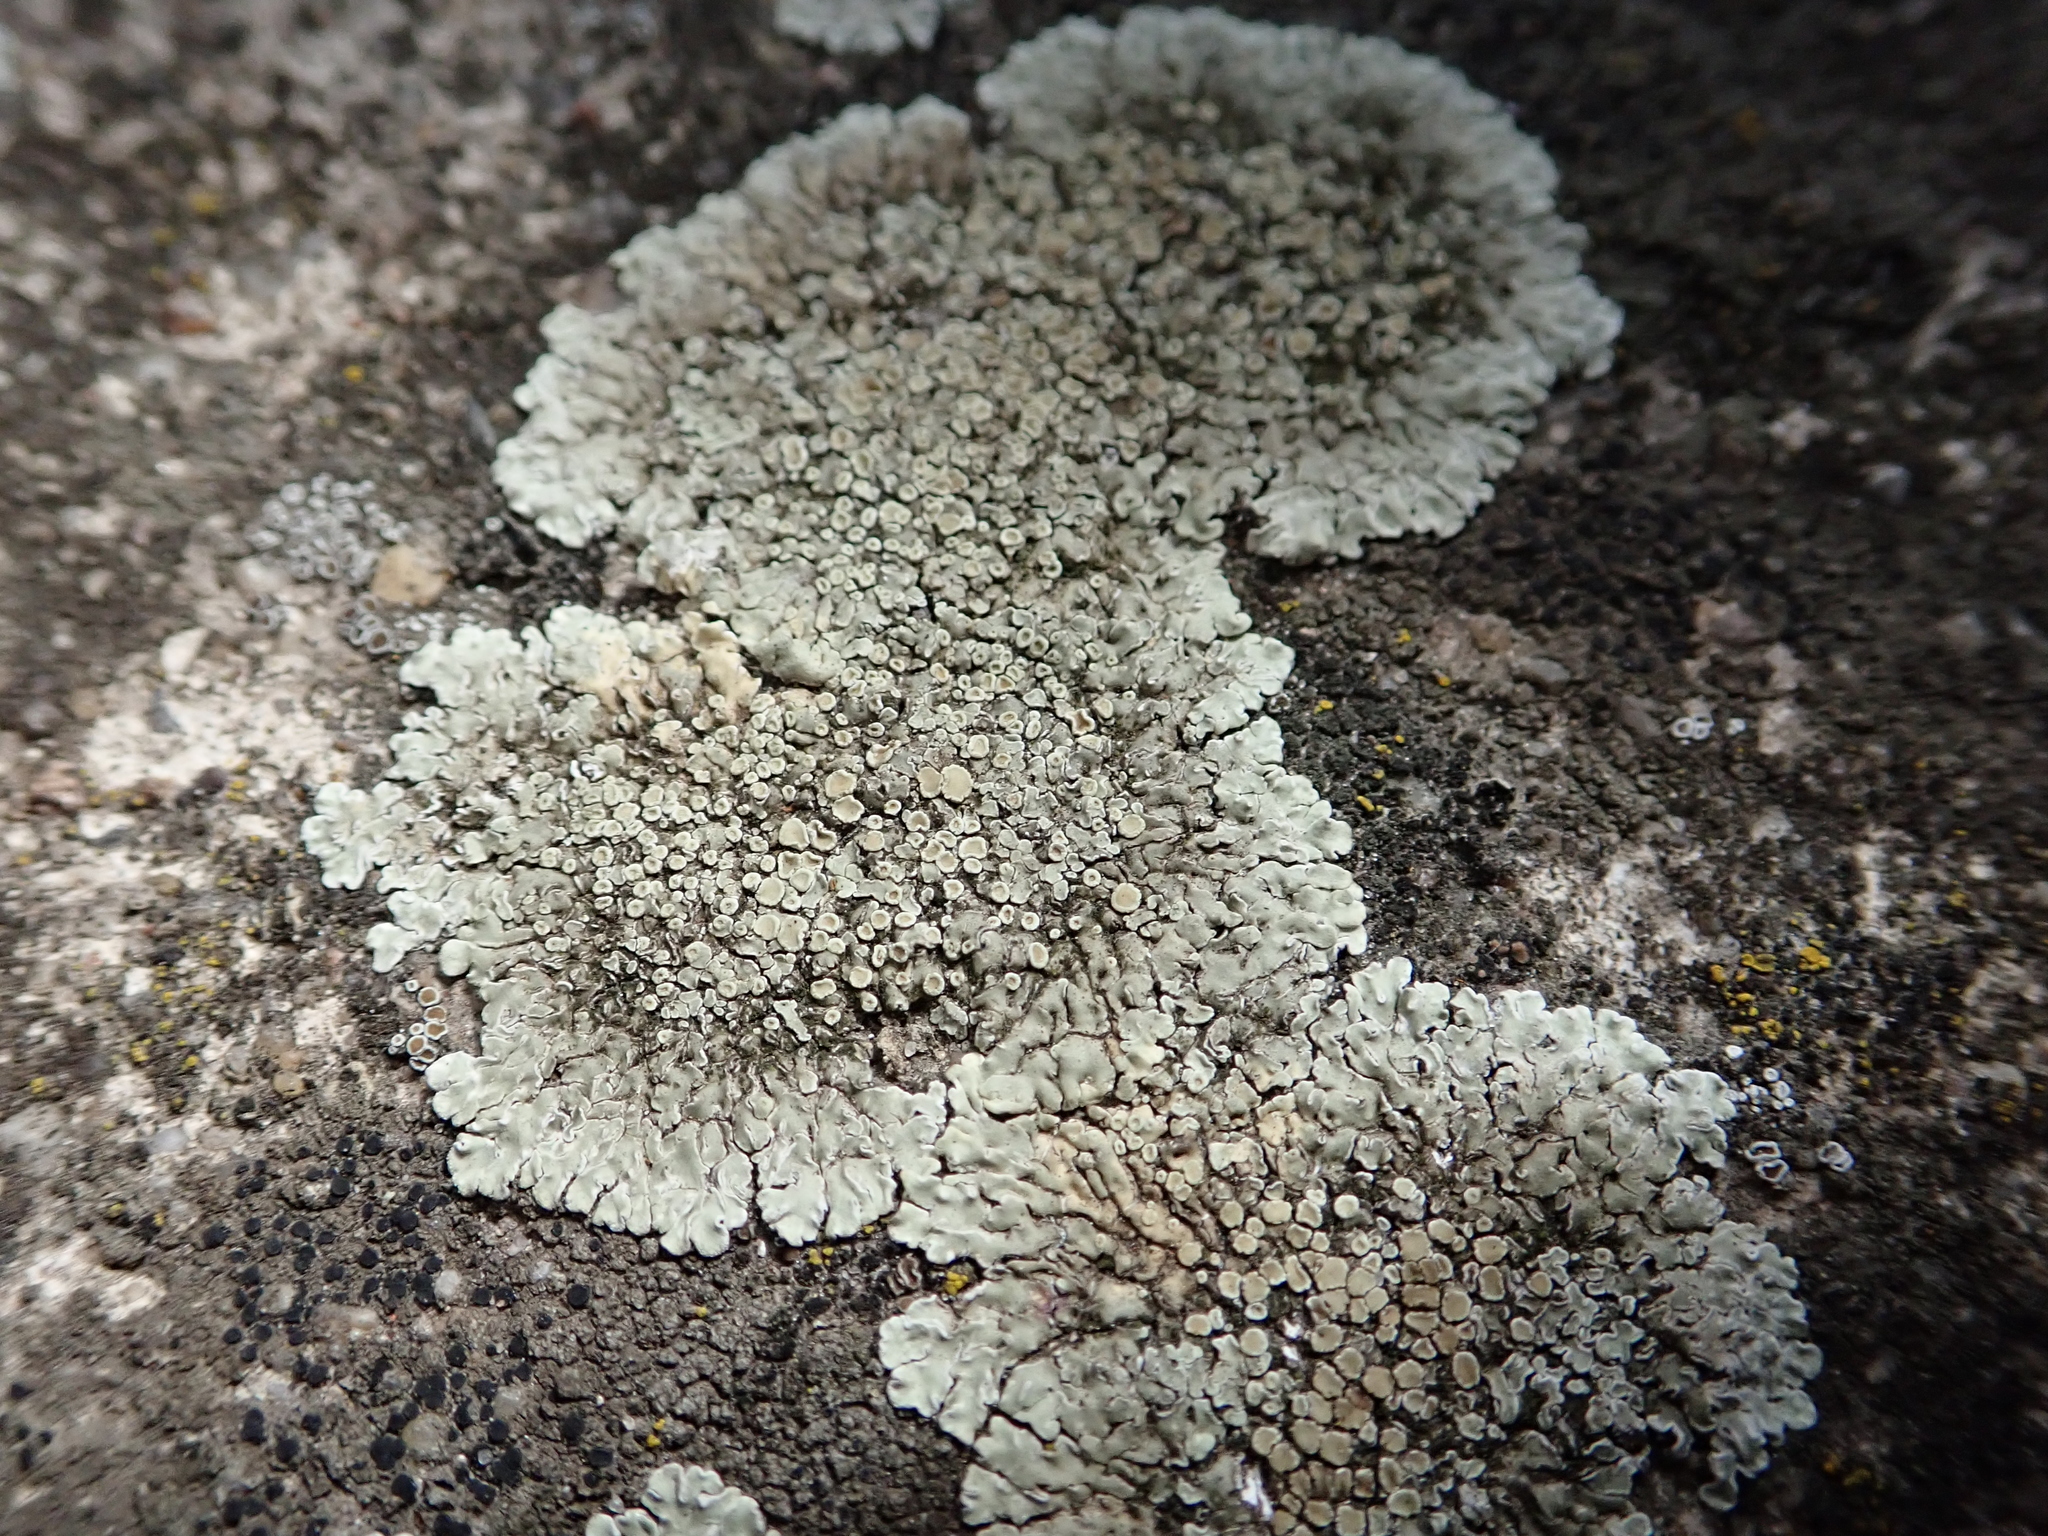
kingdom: Fungi
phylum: Ascomycota
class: Lecanoromycetes
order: Lecanorales
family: Lecanoraceae
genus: Protoparmeliopsis
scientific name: Protoparmeliopsis muralis
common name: Stonewall rim lichen
